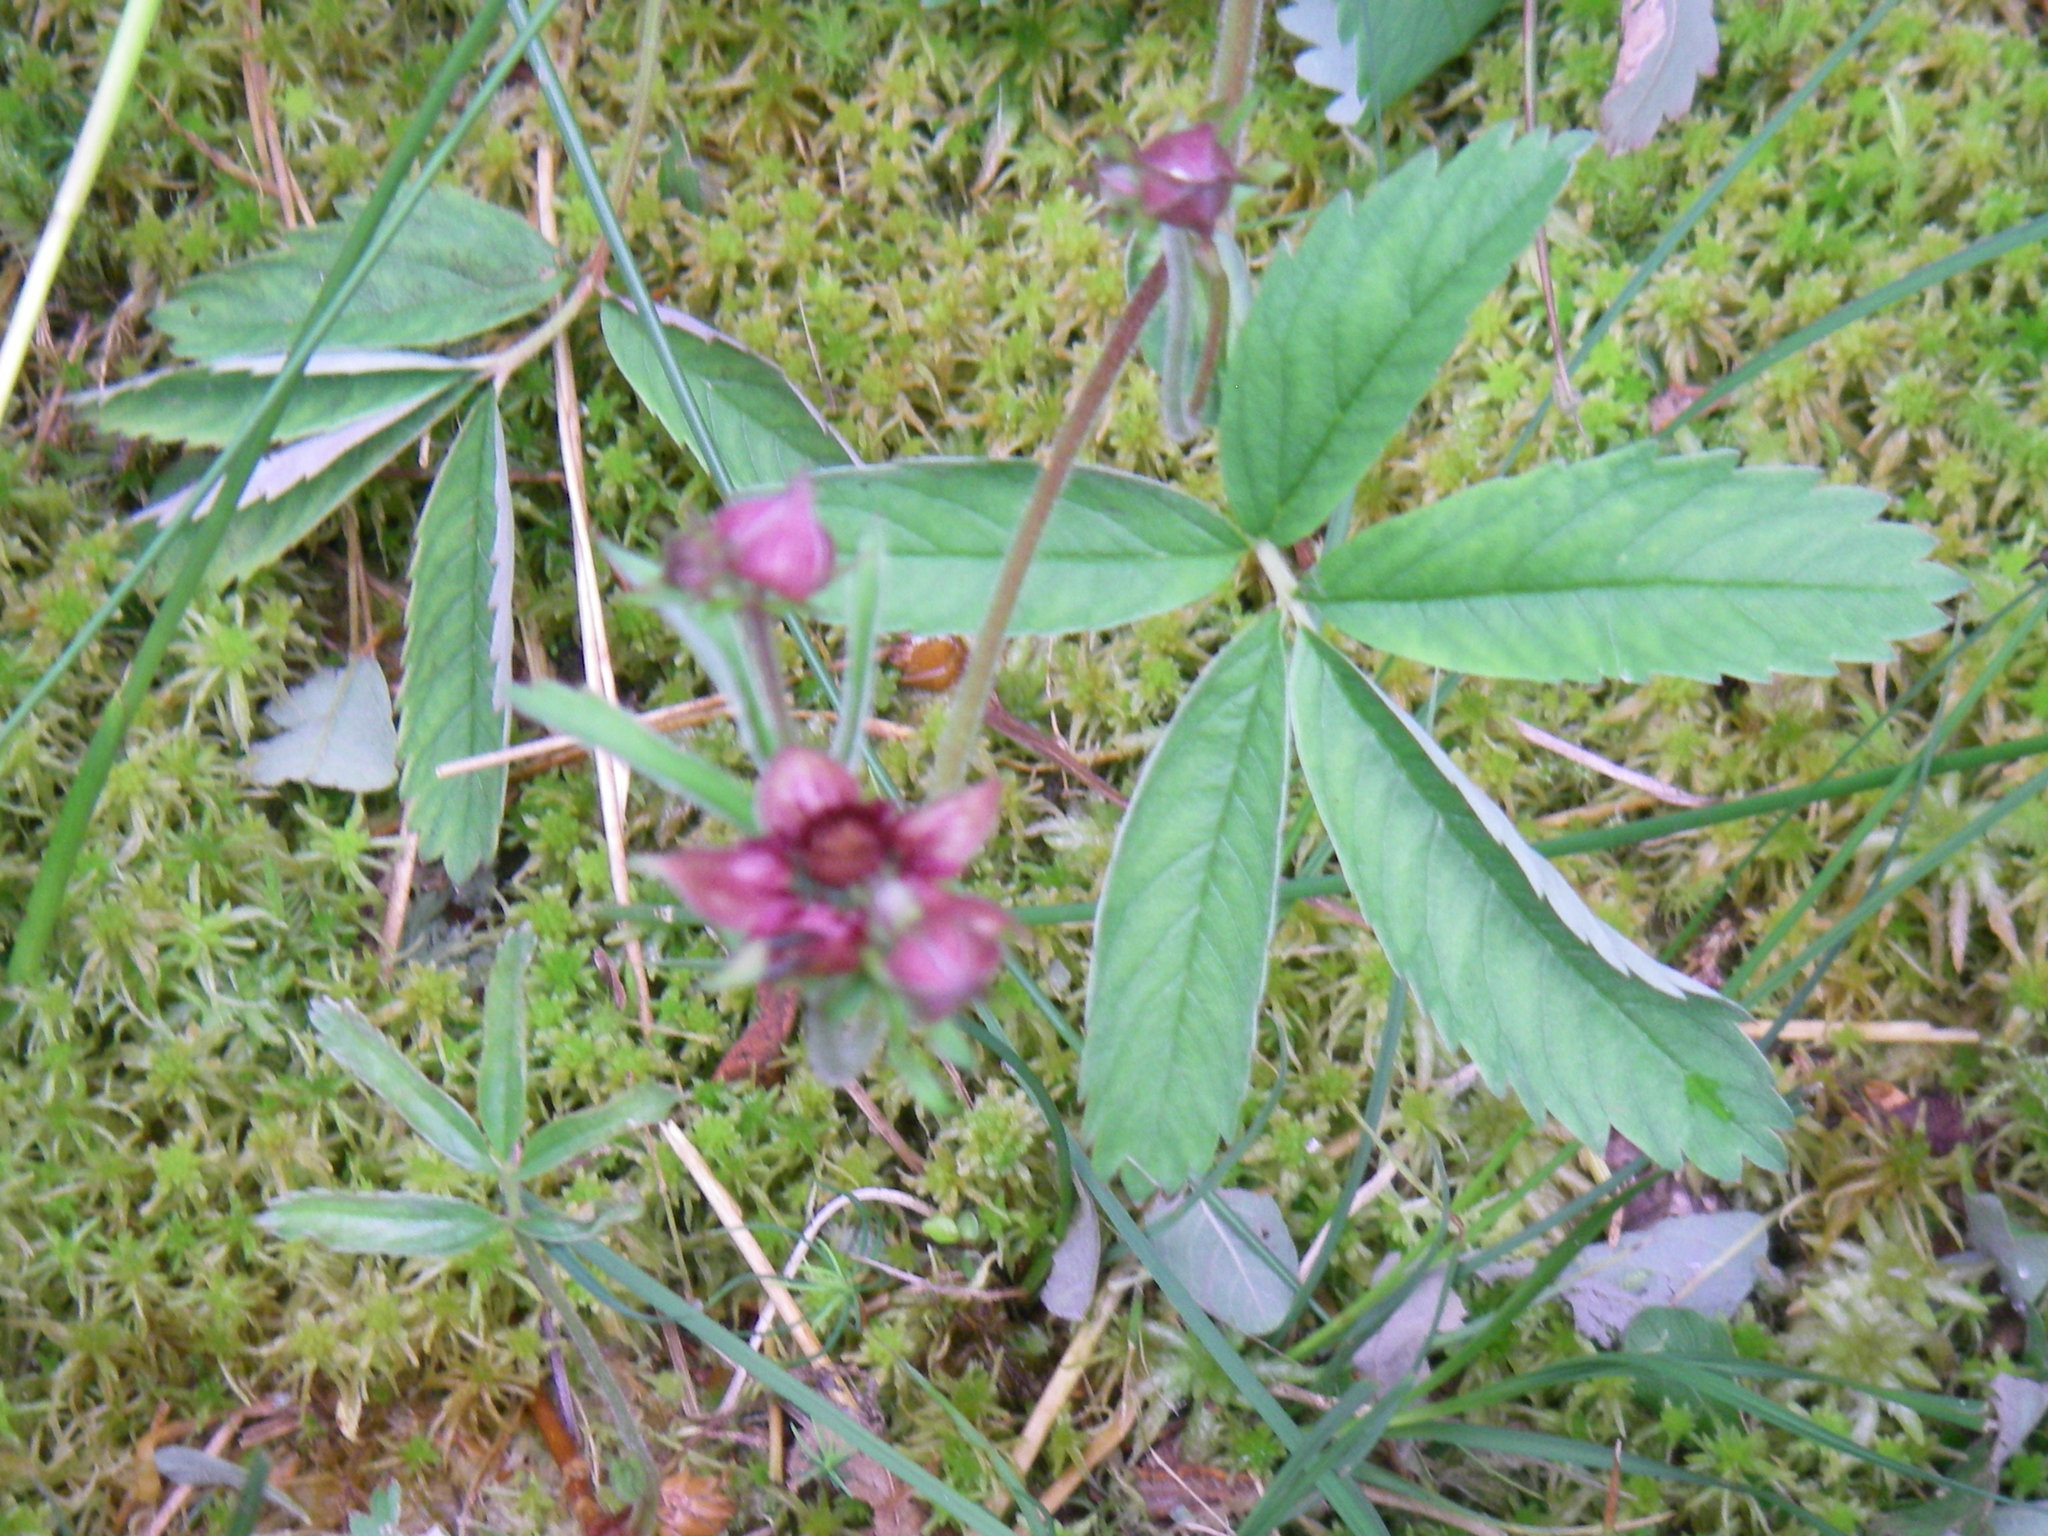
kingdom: Plantae
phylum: Tracheophyta
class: Magnoliopsida
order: Rosales
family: Rosaceae
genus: Comarum
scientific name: Comarum palustre
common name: Marsh cinquefoil
